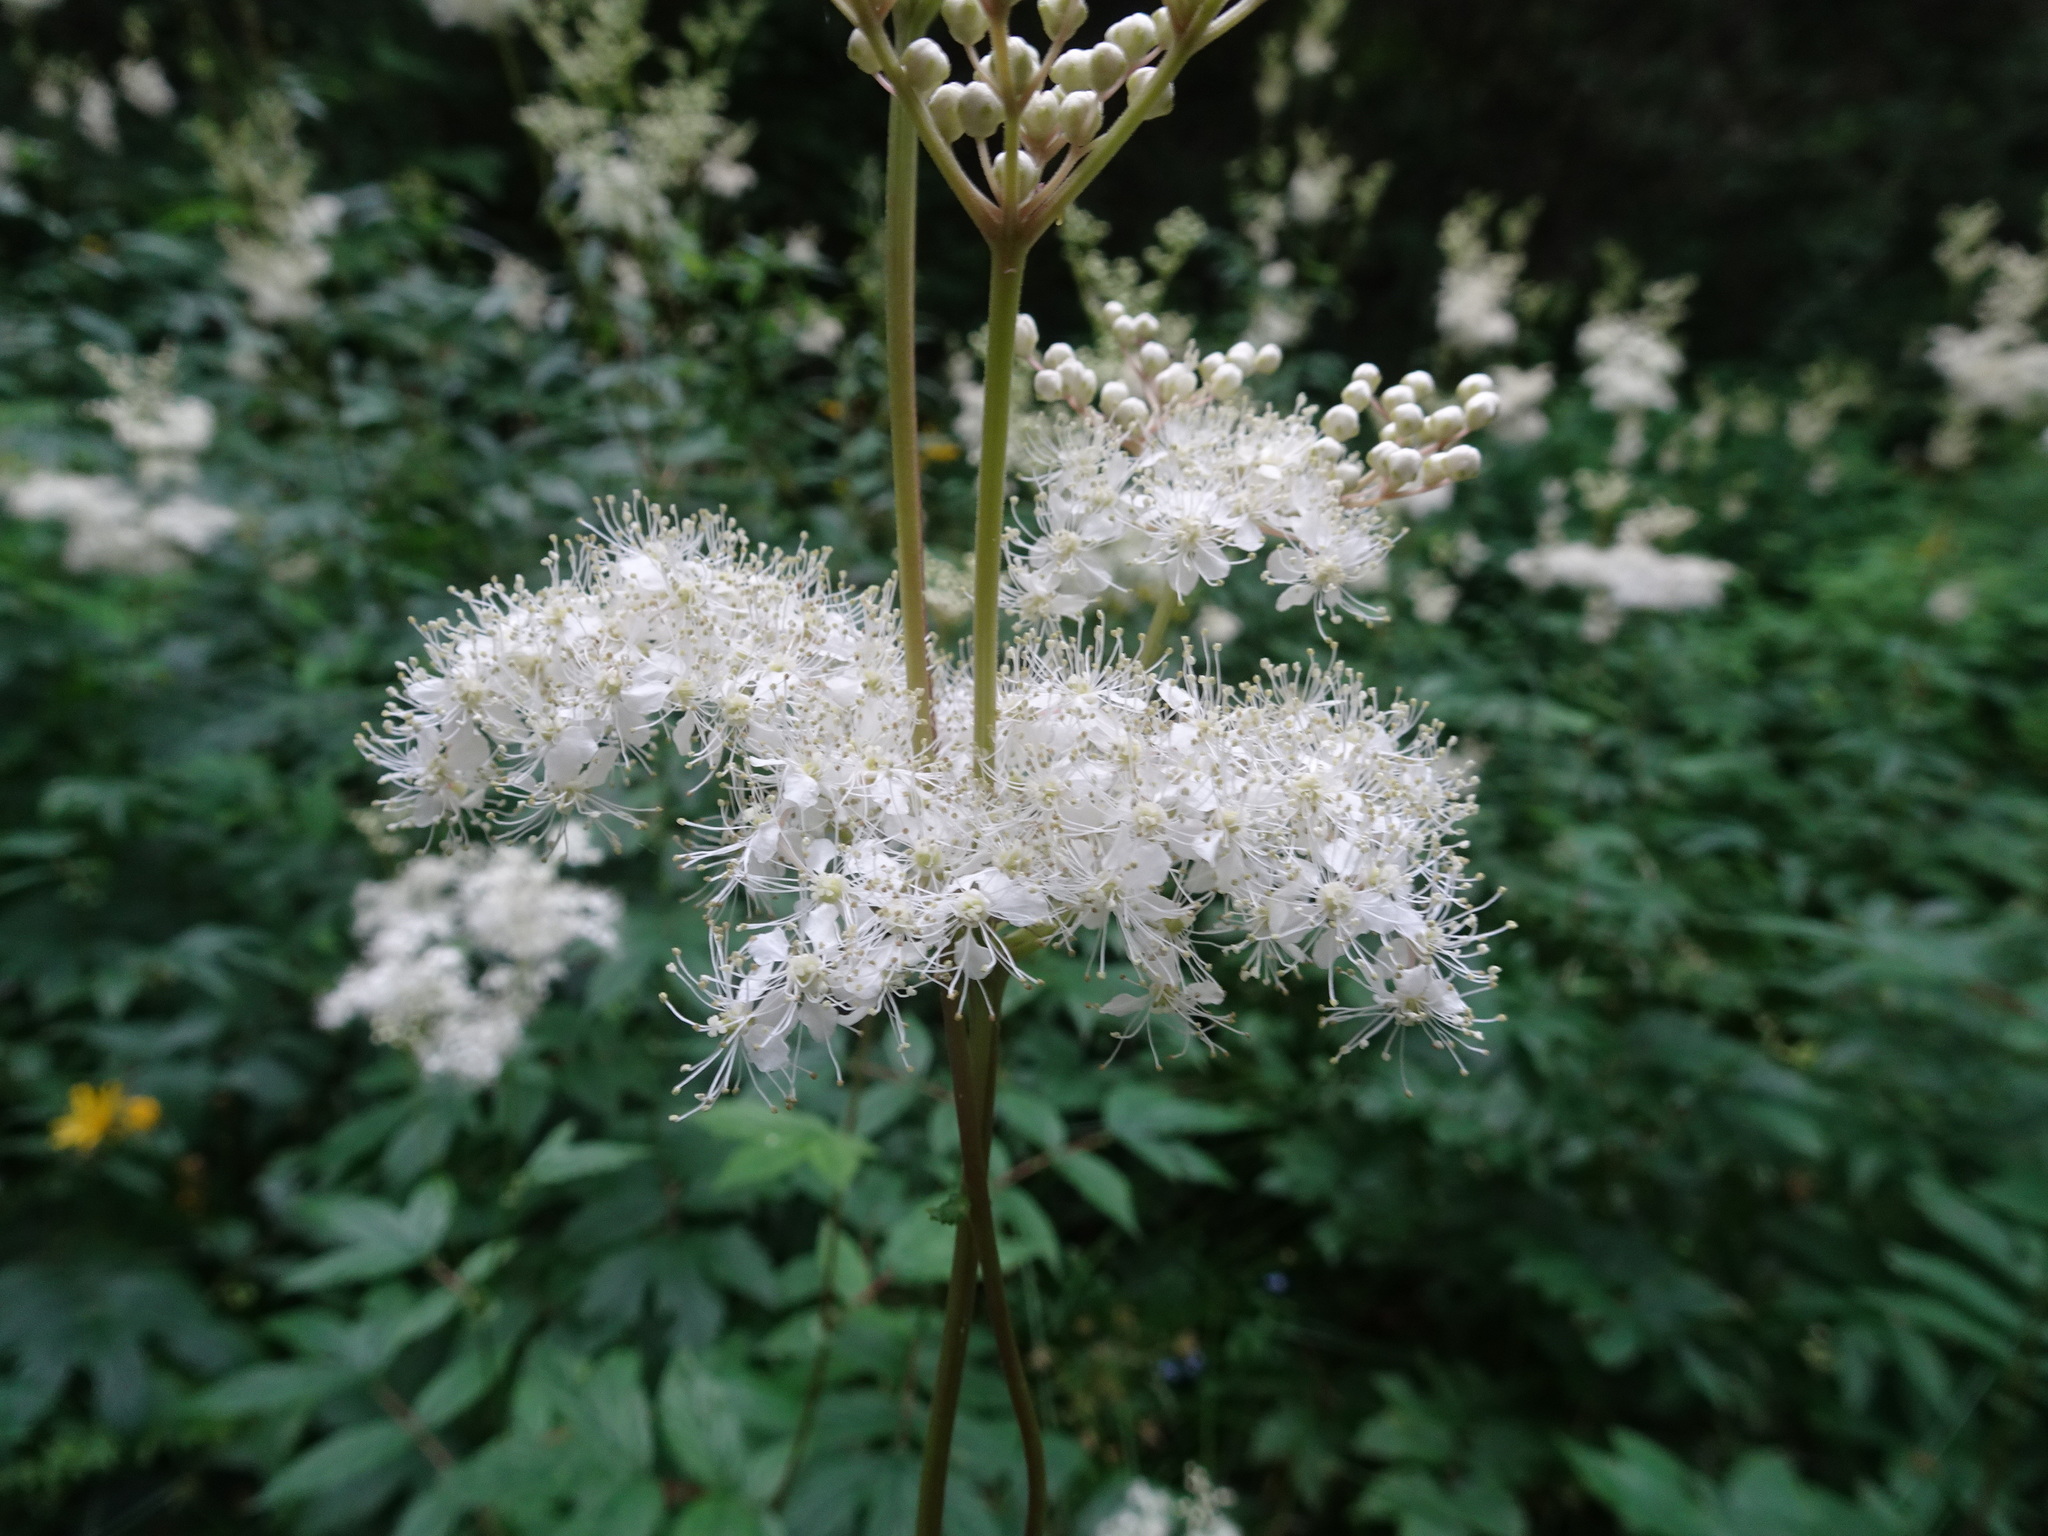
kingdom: Plantae
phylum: Tracheophyta
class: Magnoliopsida
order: Rosales
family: Rosaceae
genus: Filipendula
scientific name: Filipendula ulmaria
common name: Meadowsweet
